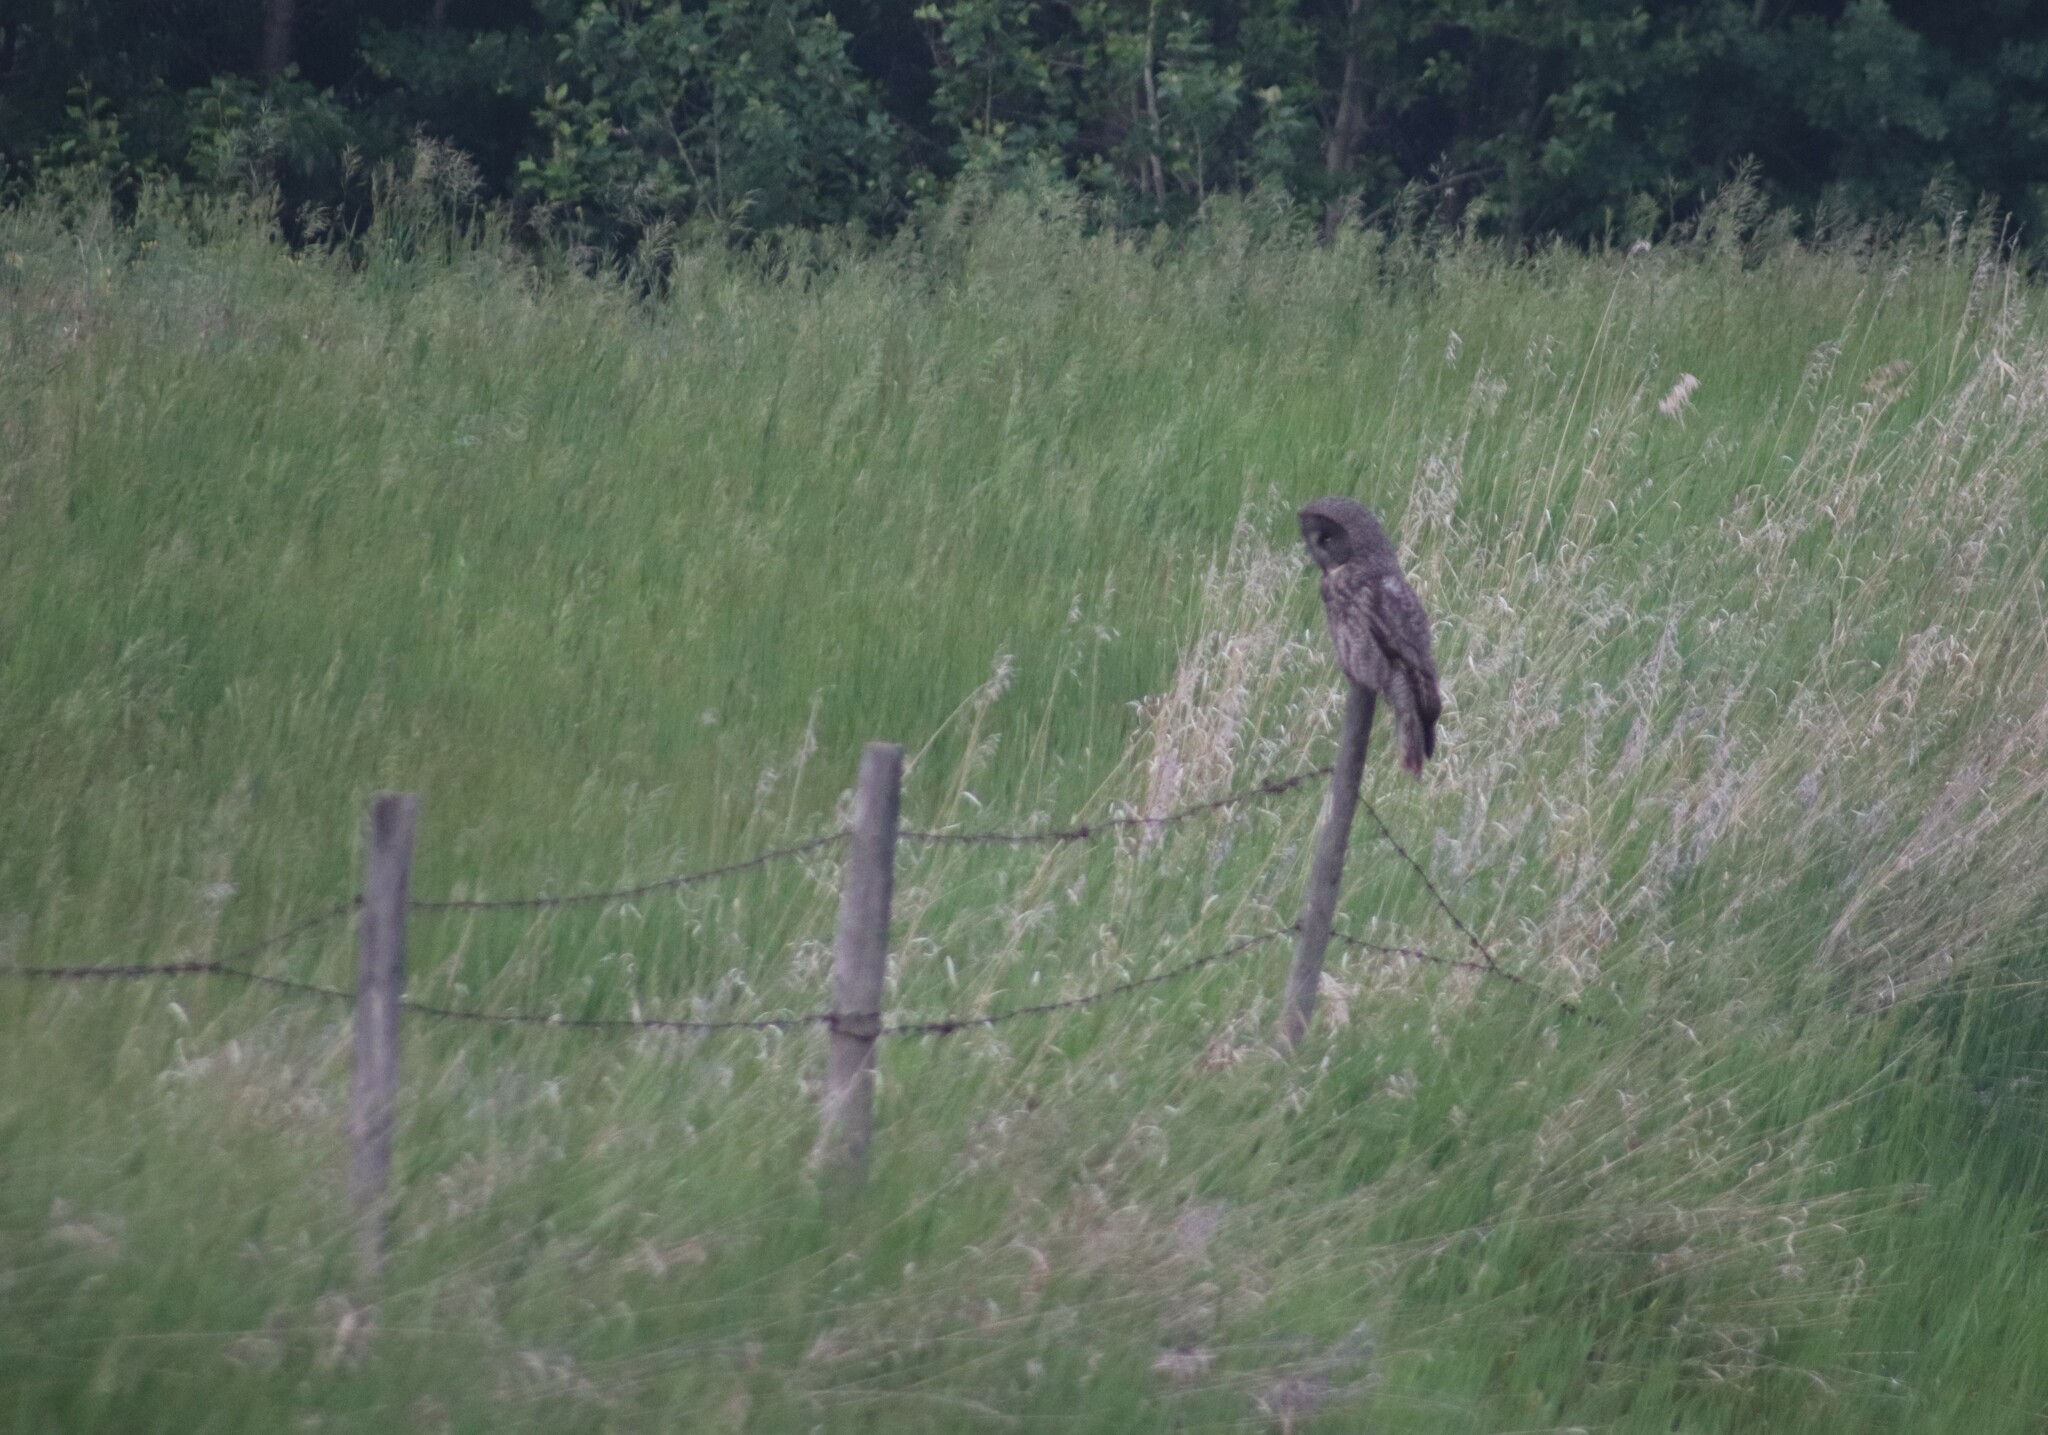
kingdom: Animalia
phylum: Chordata
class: Aves
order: Strigiformes
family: Strigidae
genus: Strix
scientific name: Strix nebulosa
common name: Great grey owl
